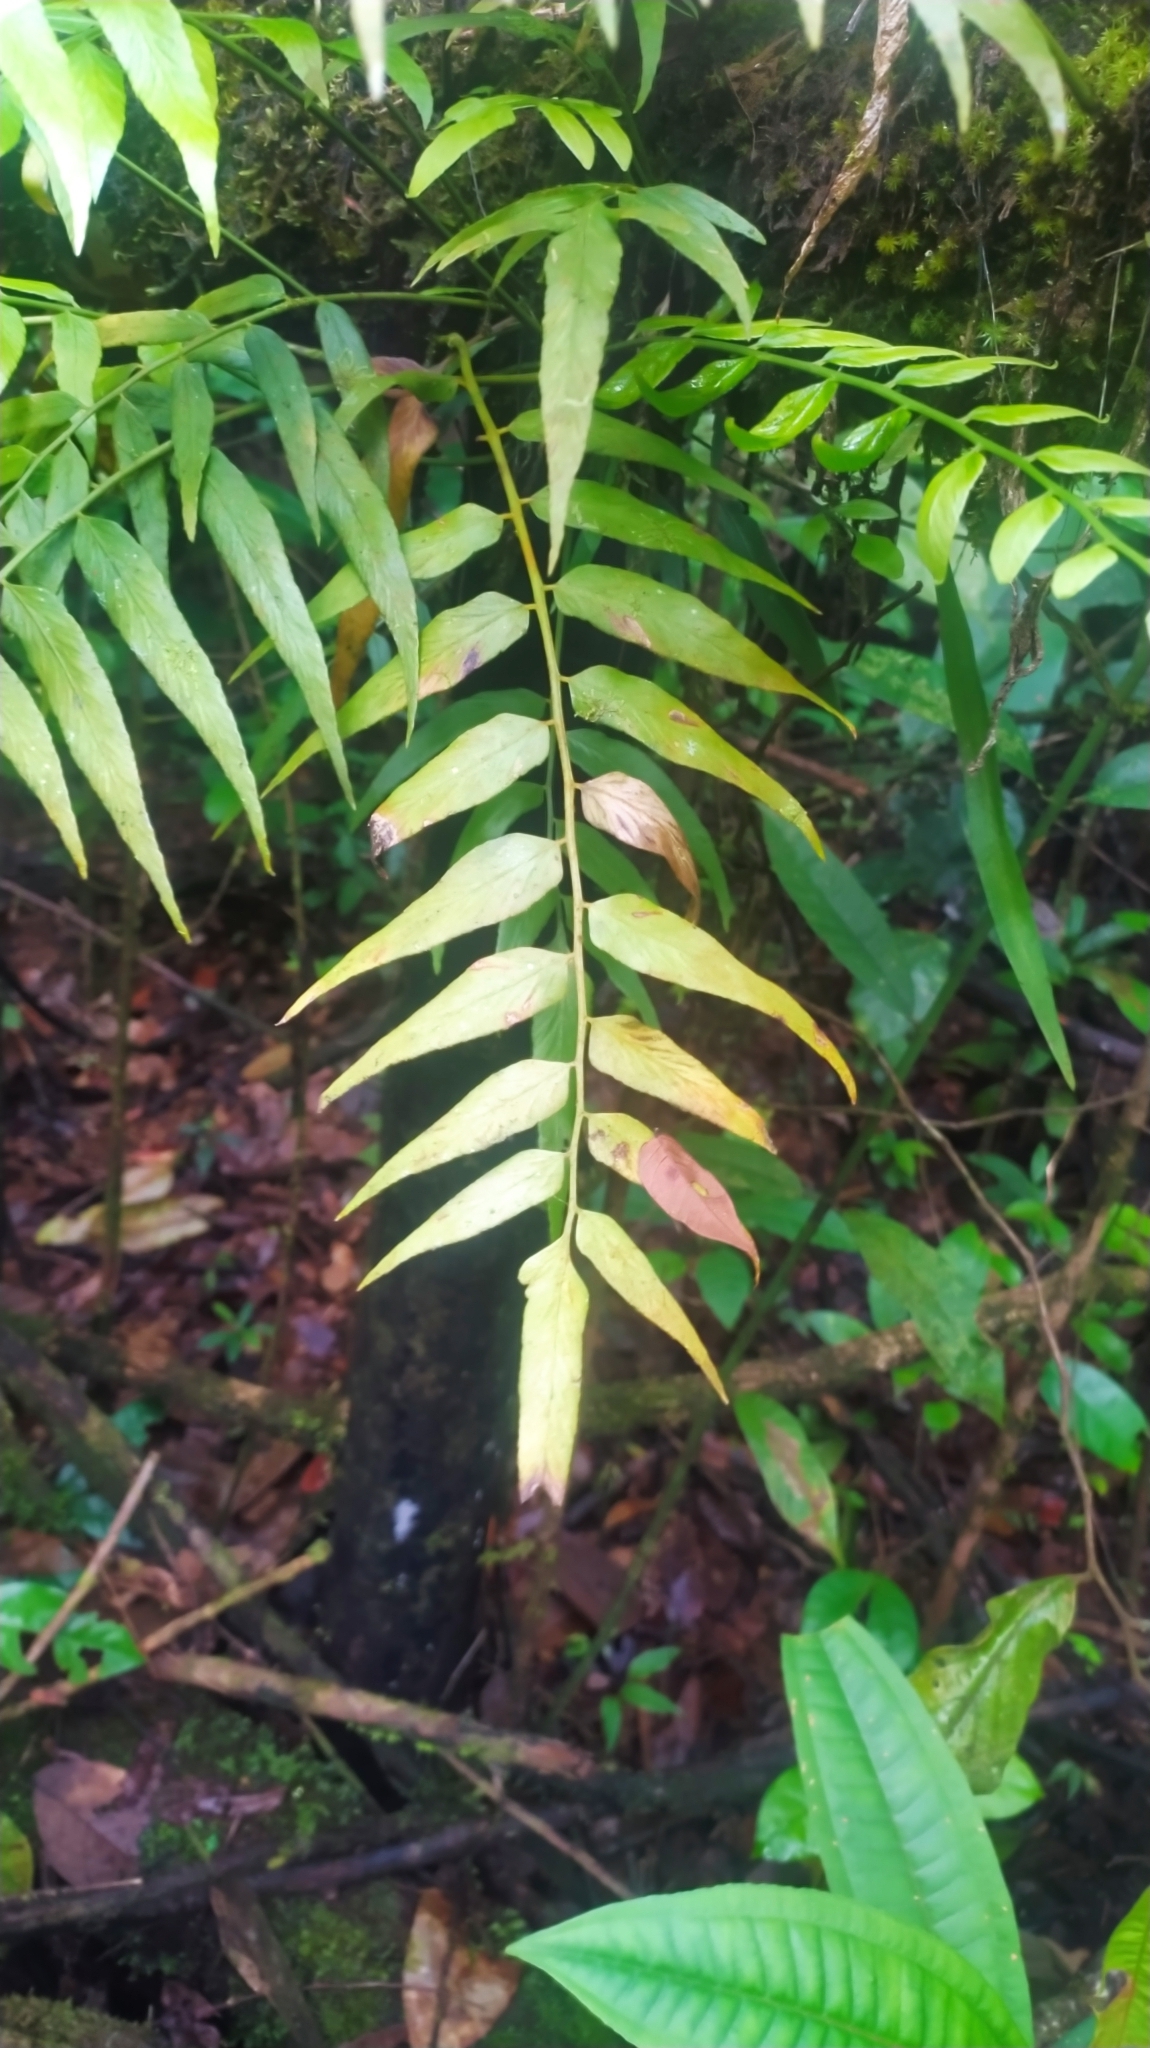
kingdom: Plantae
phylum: Tracheophyta
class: Polypodiopsida
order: Polypodiales
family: Aspleniaceae
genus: Asplenium
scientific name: Asplenium juglandifolium
